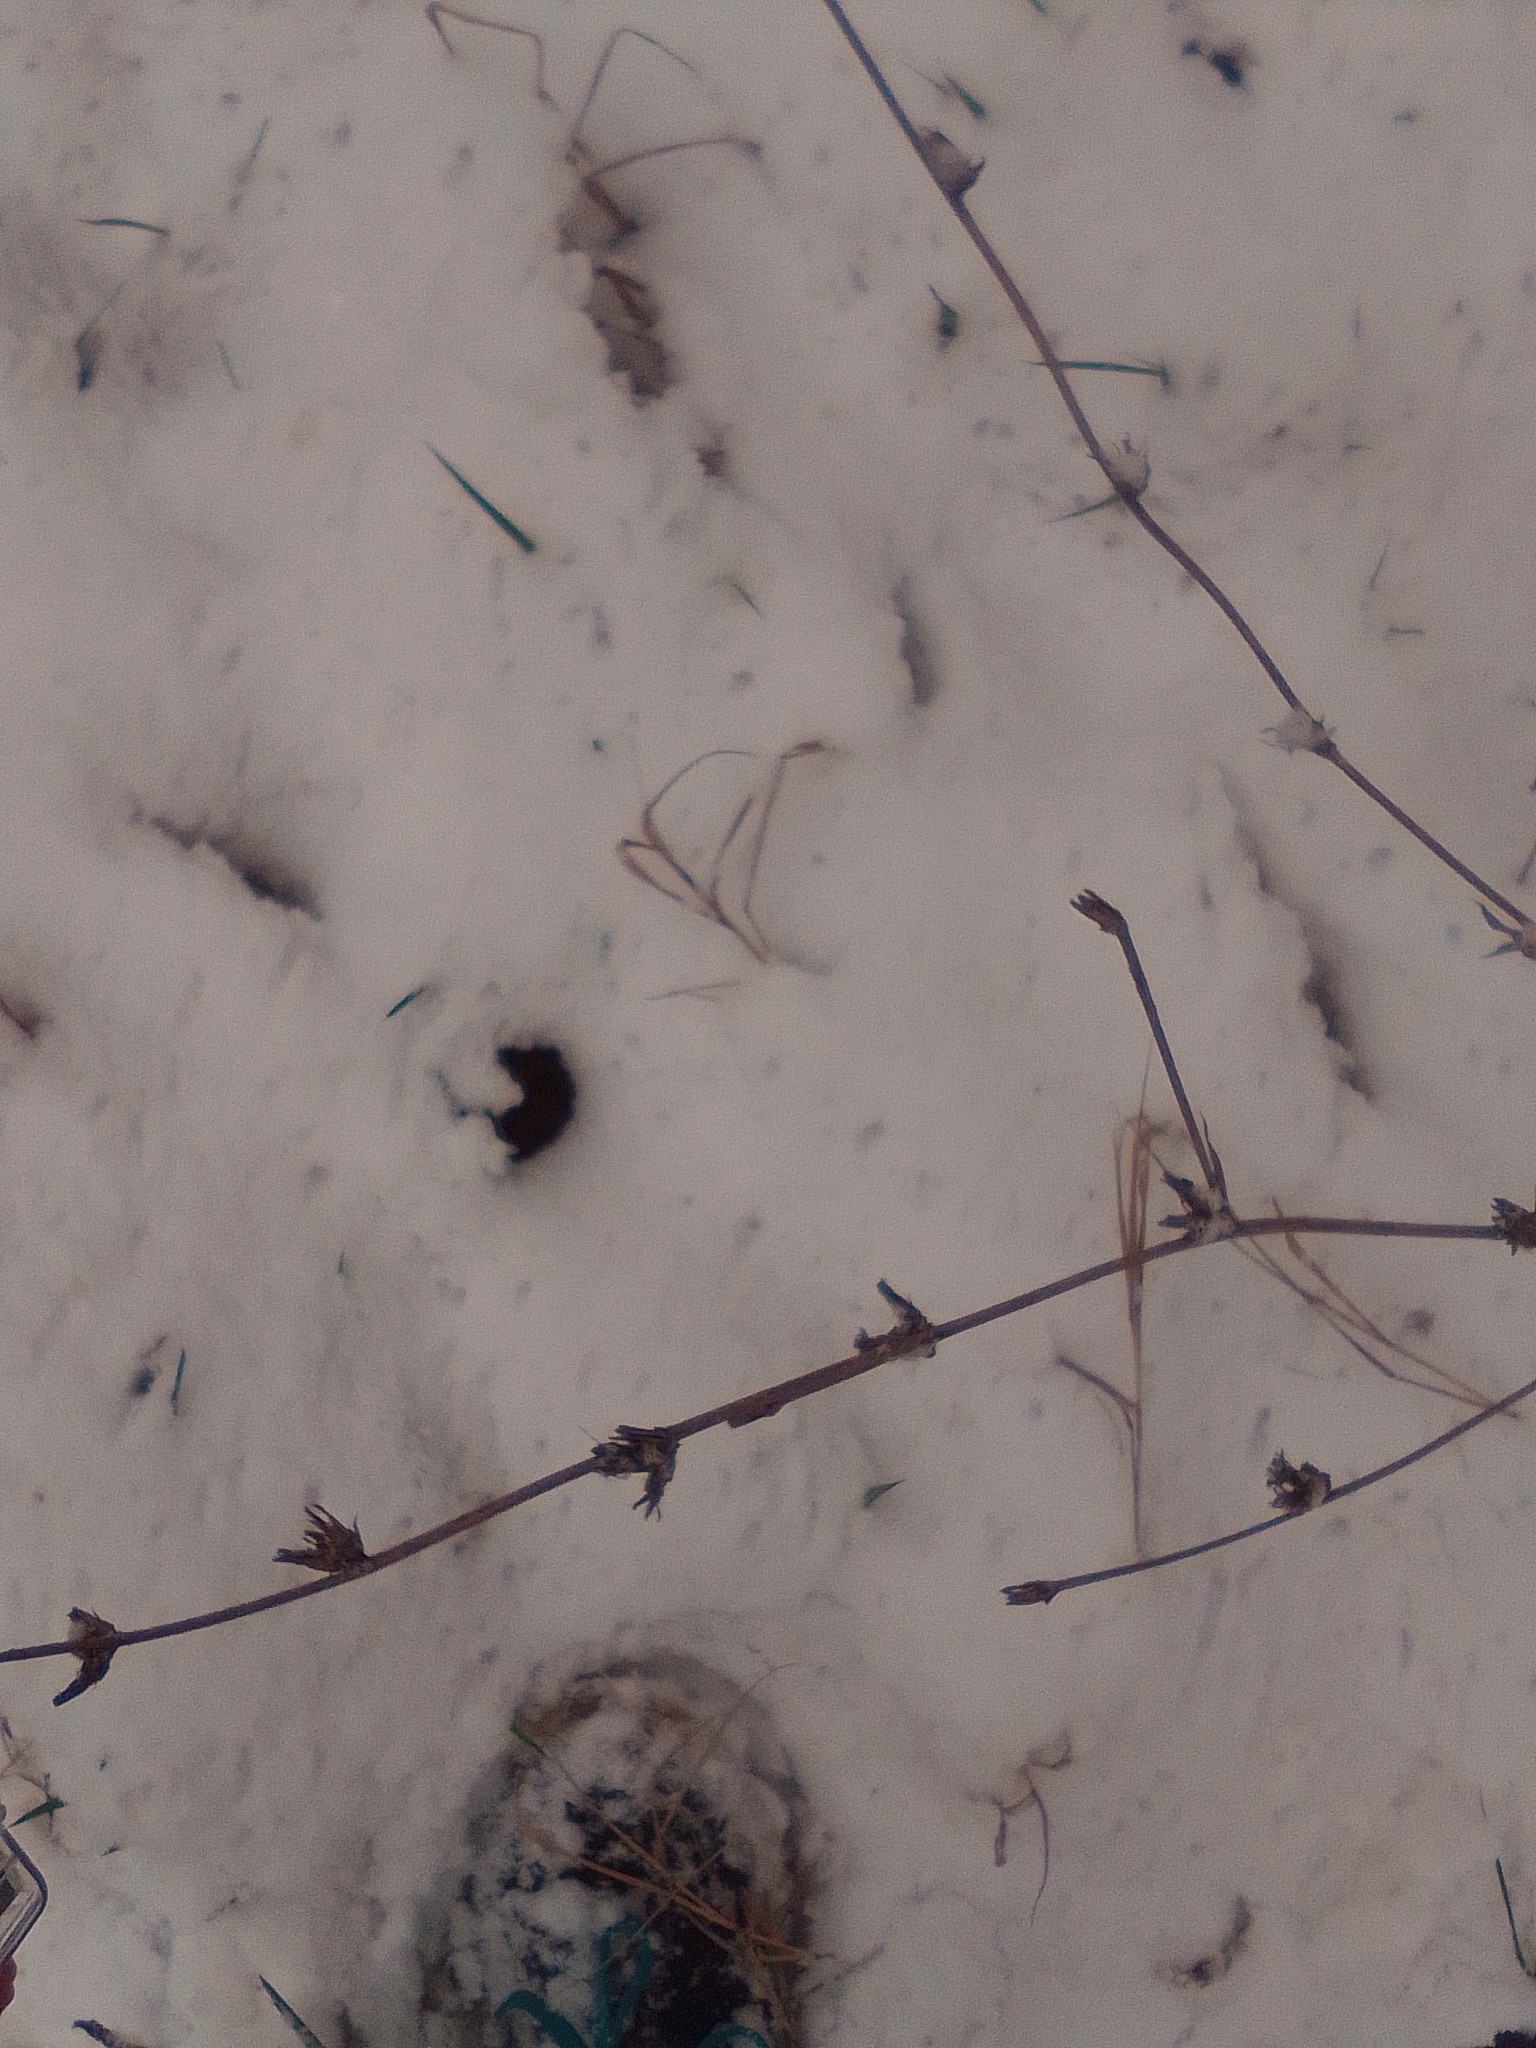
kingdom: Plantae
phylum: Tracheophyta
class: Magnoliopsida
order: Asterales
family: Asteraceae
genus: Cichorium
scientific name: Cichorium intybus
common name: Chicory
